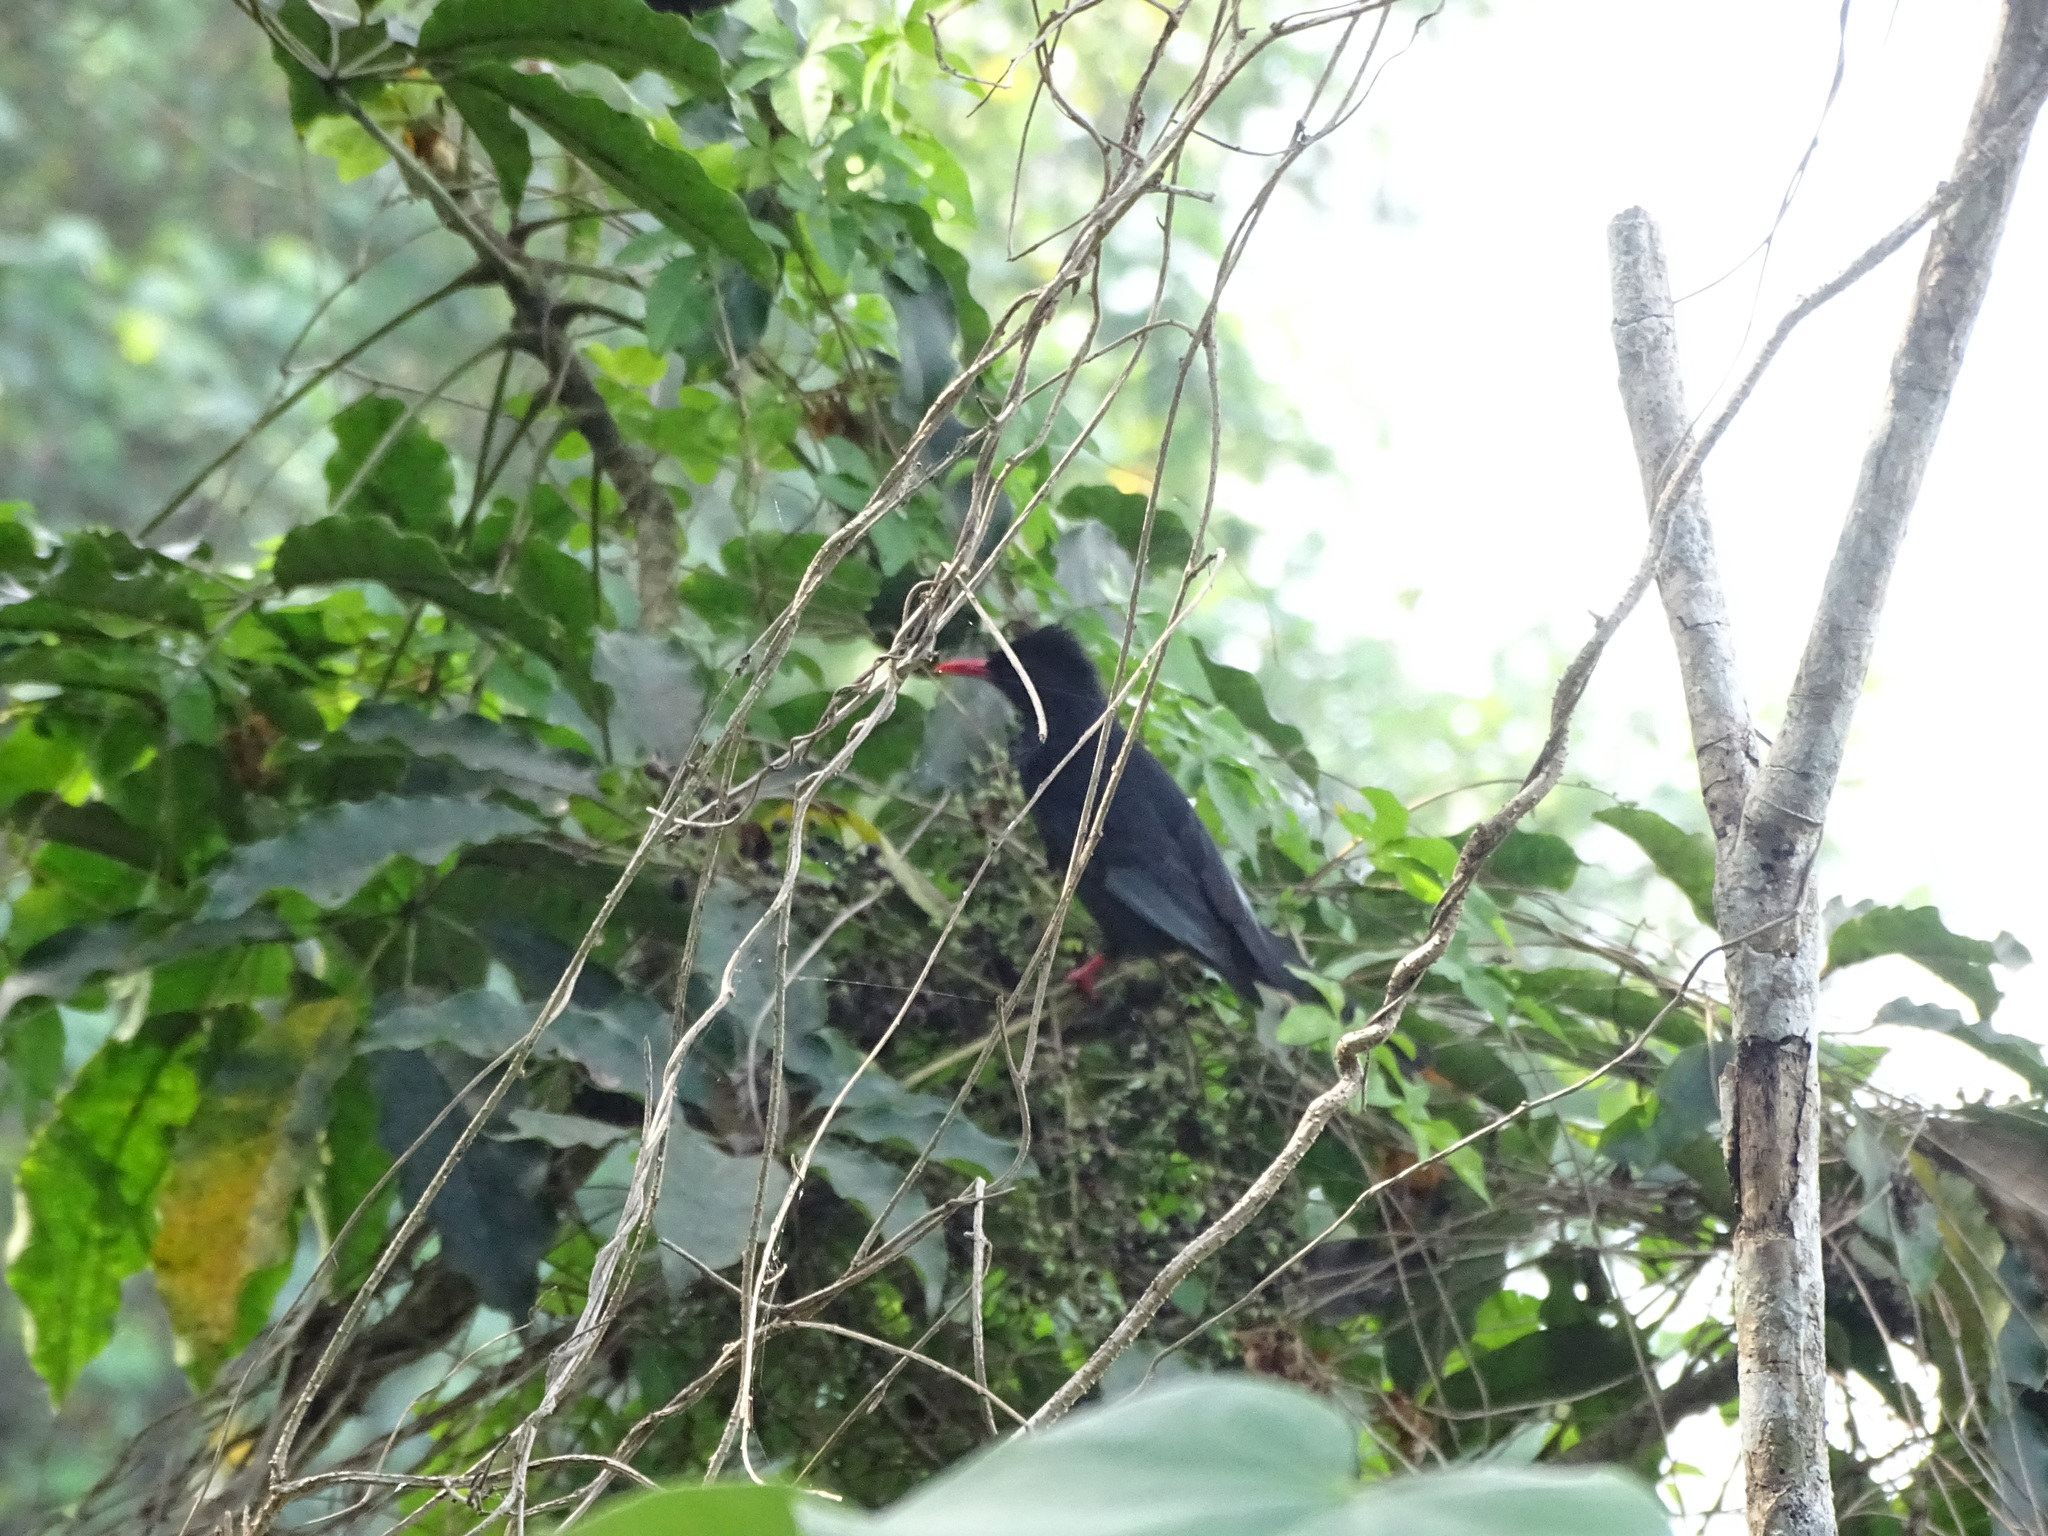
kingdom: Animalia
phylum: Chordata
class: Aves
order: Passeriformes
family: Pycnonotidae
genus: Hypsipetes
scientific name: Hypsipetes leucocephalus
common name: Black bulbul
